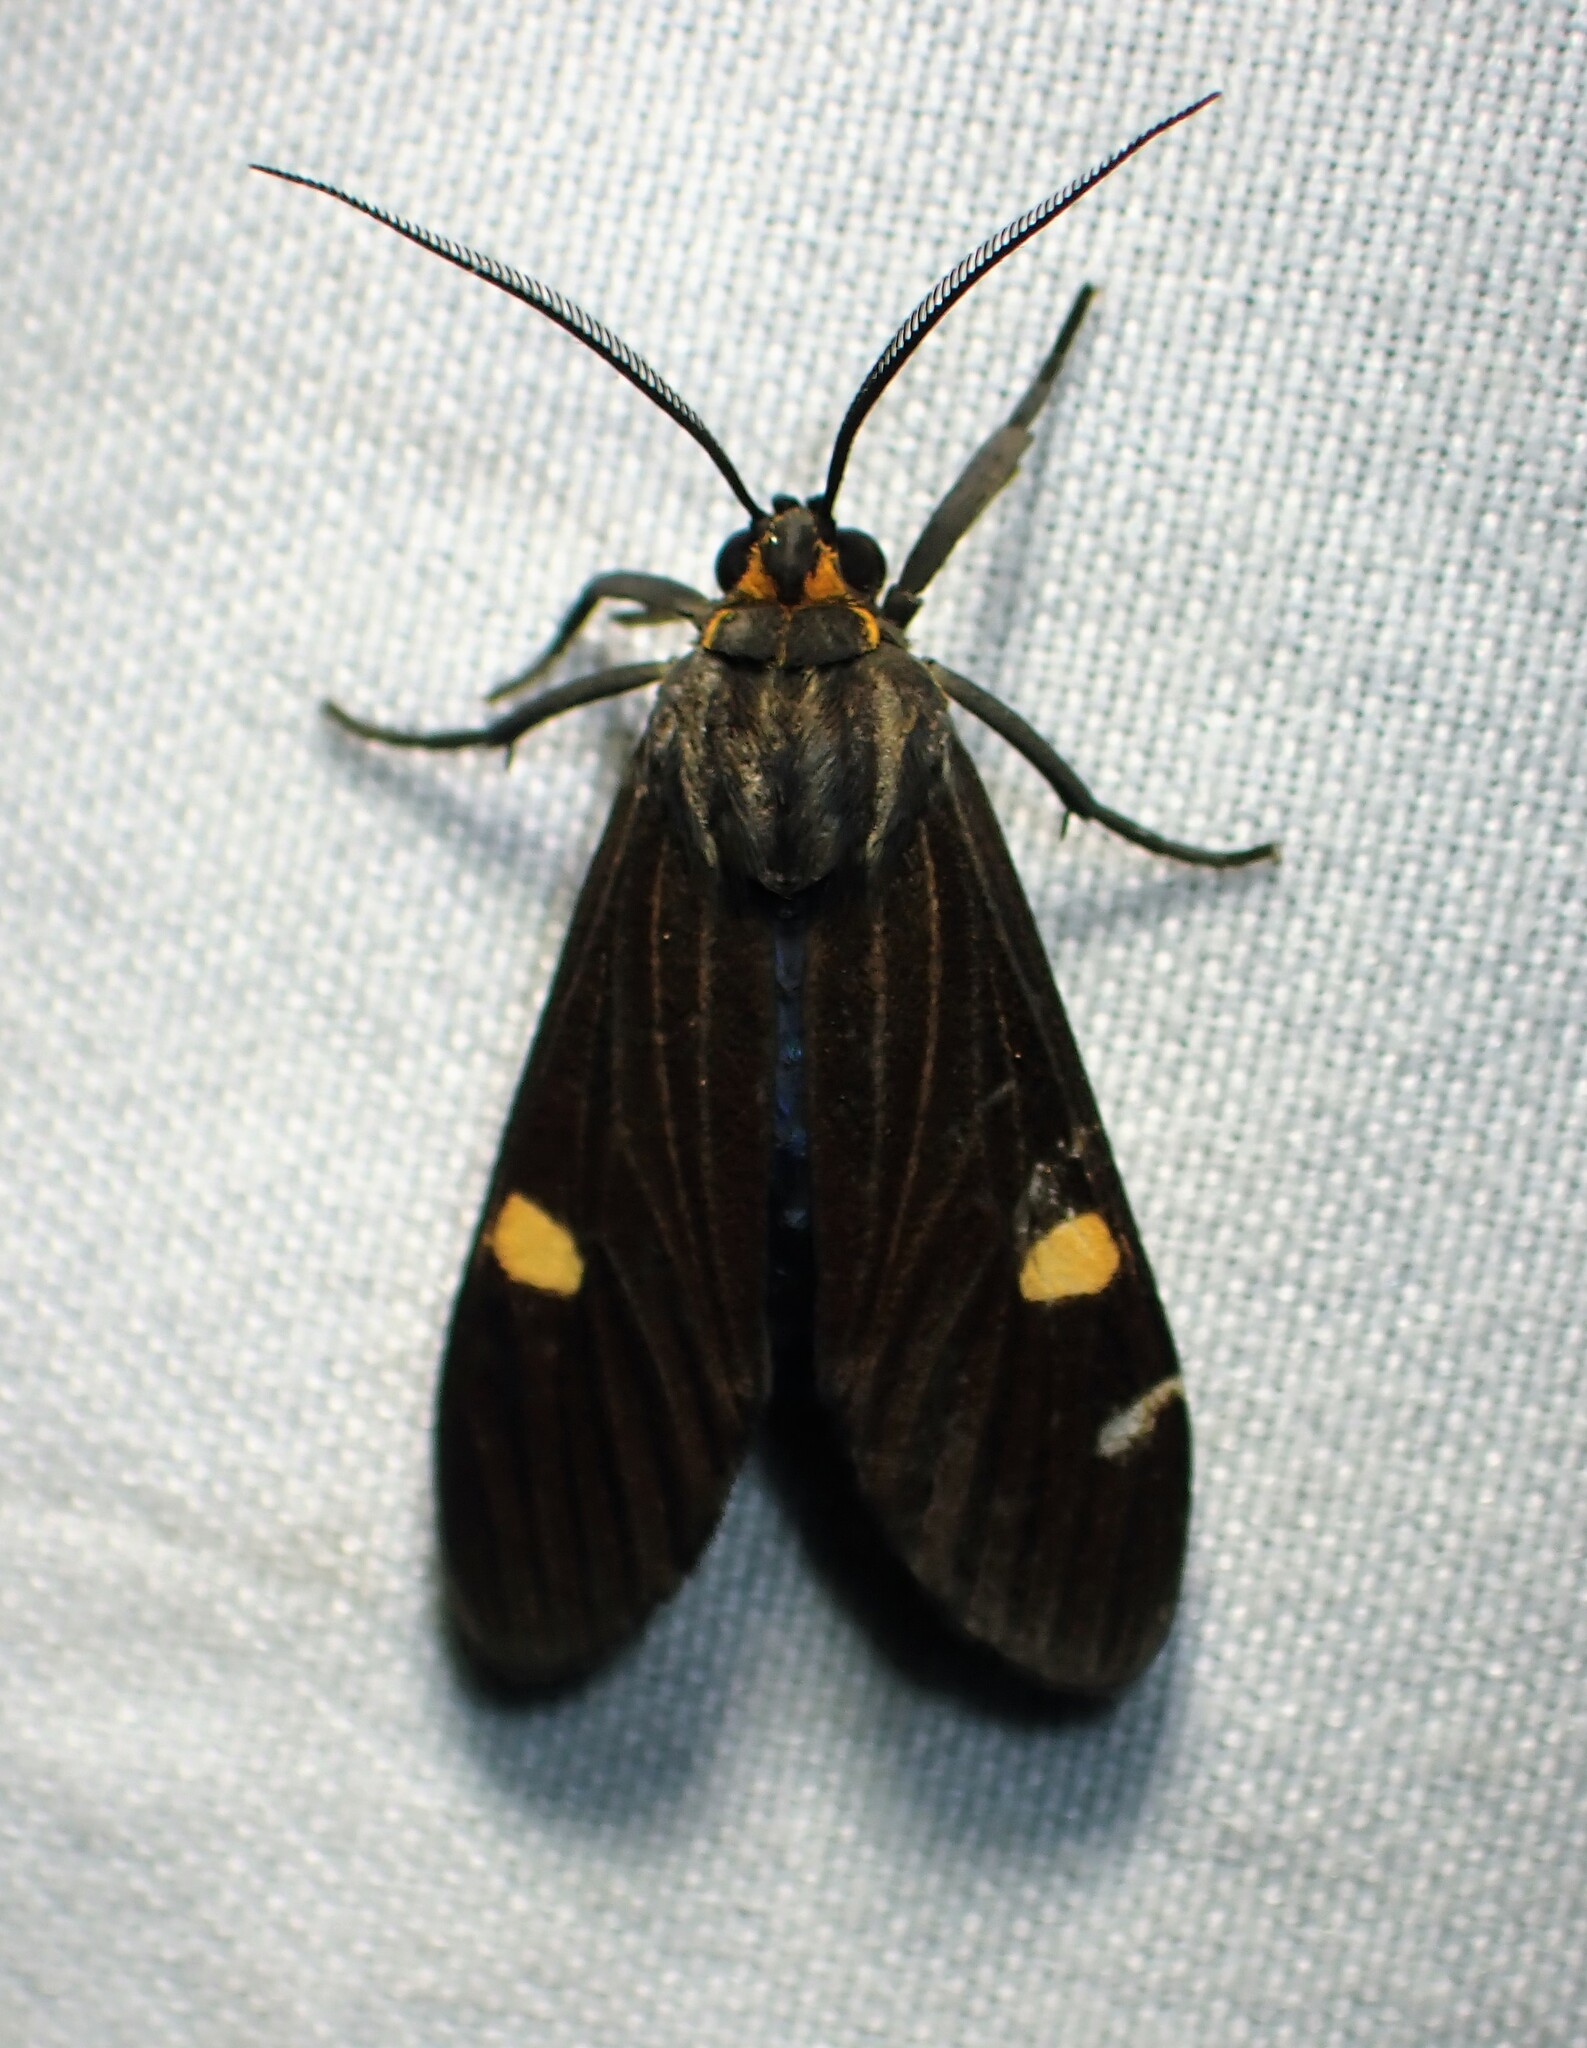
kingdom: Animalia
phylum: Arthropoda
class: Insecta
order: Lepidoptera
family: Erebidae
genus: Aclytia
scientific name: Aclytia heber
